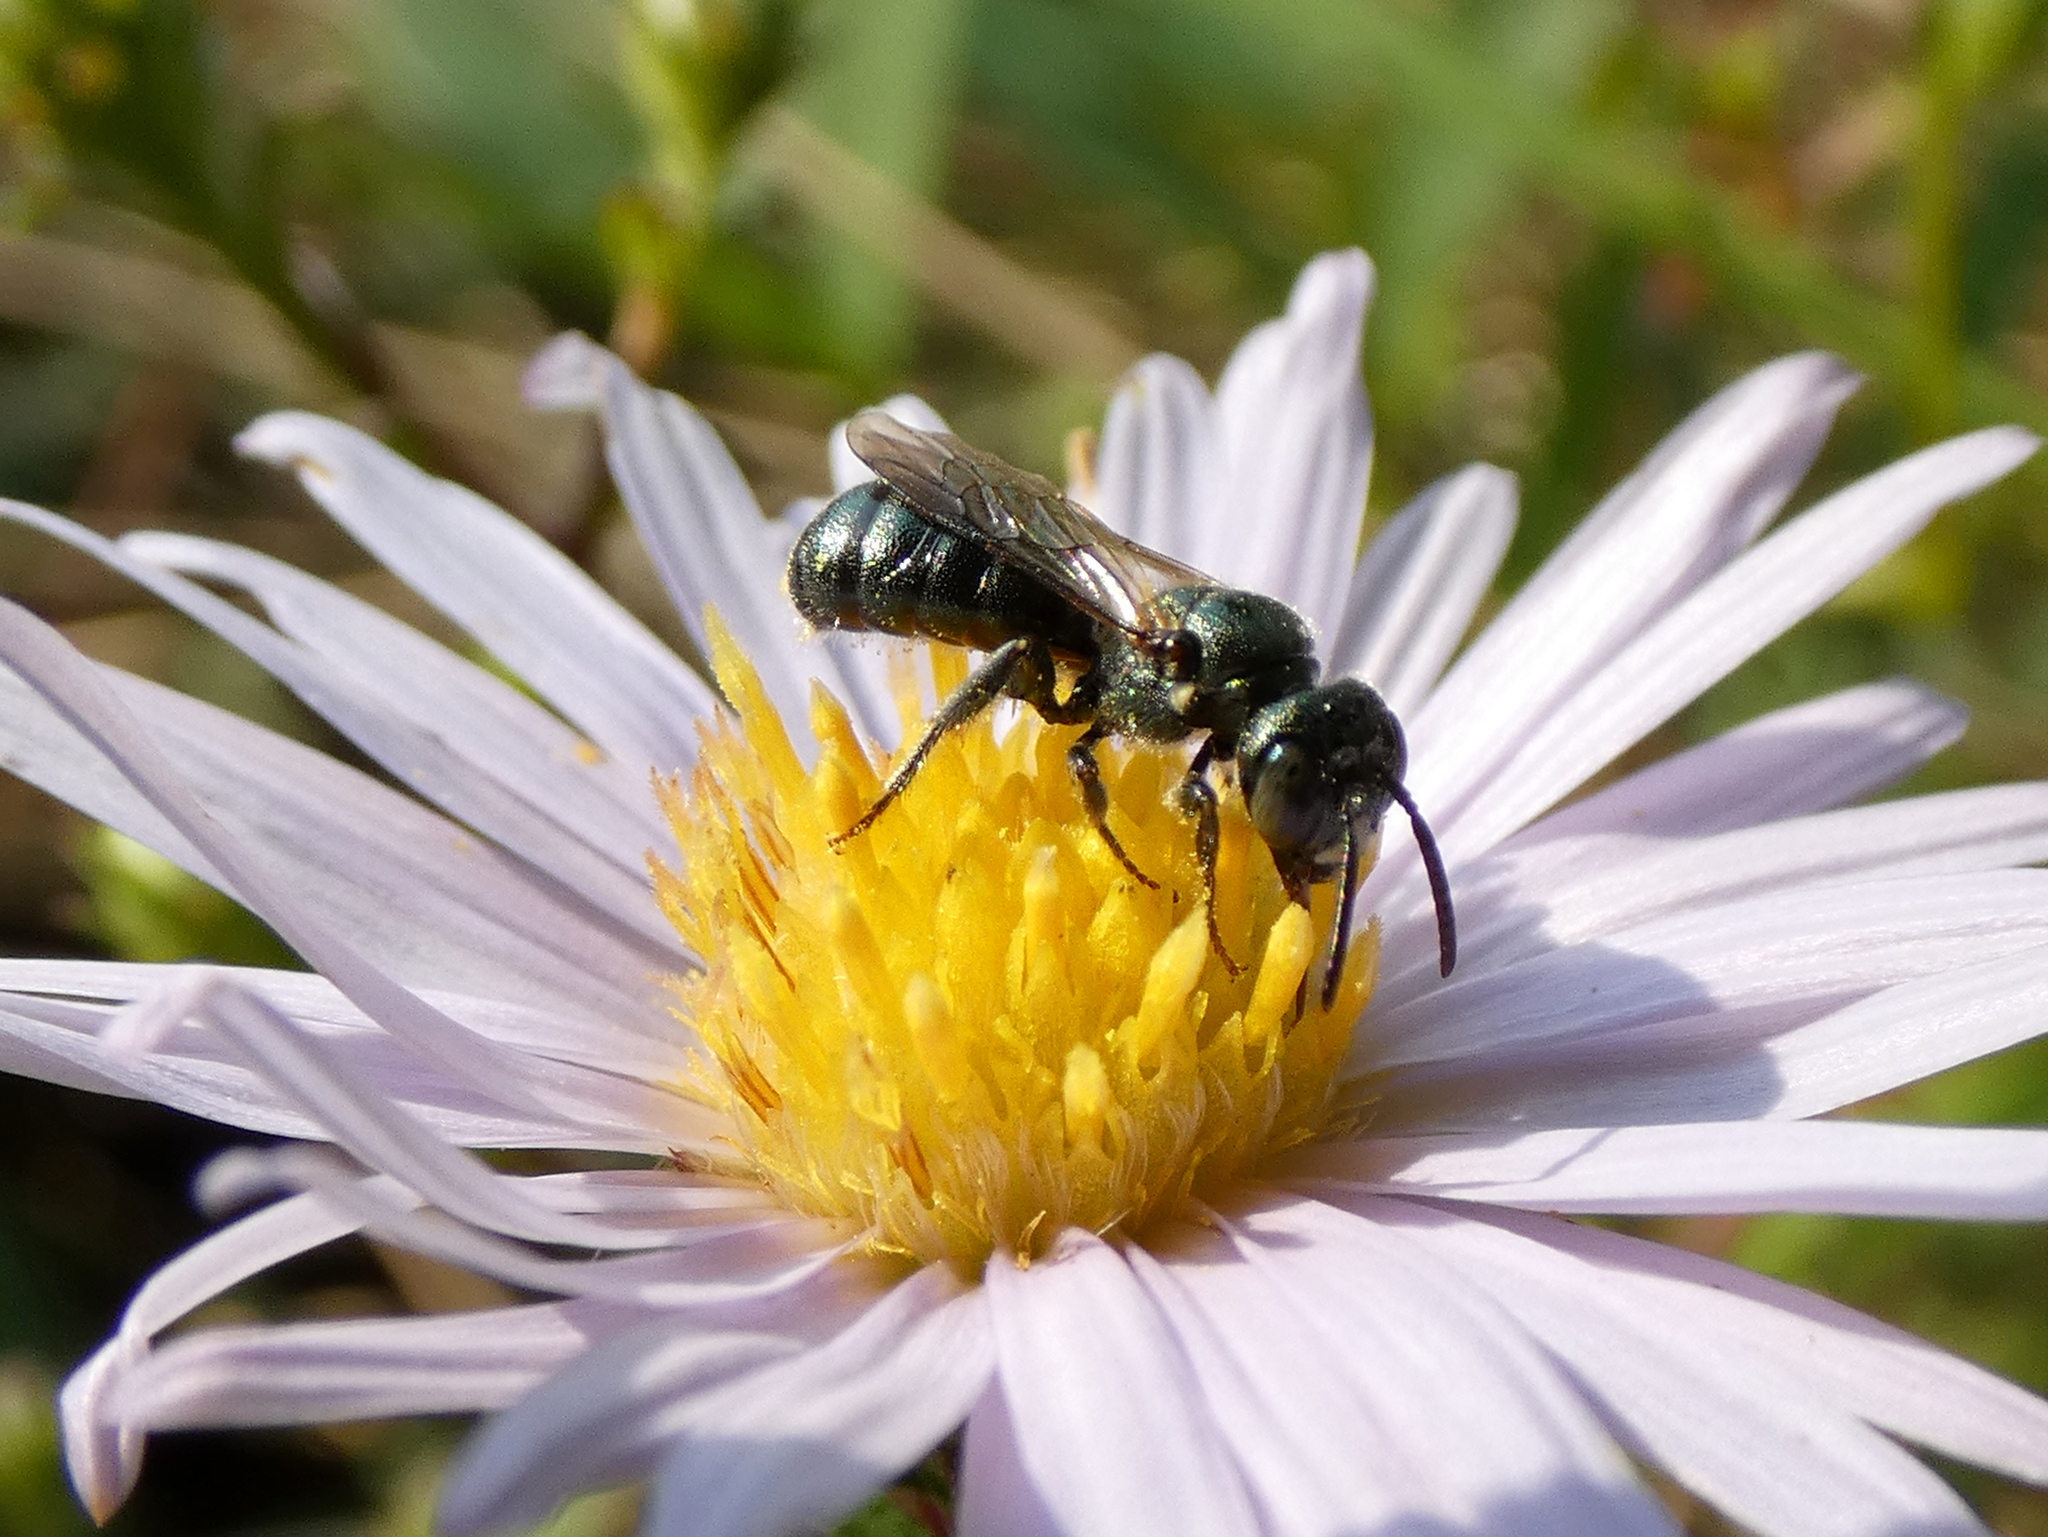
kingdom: Animalia
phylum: Arthropoda
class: Insecta
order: Hymenoptera
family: Apidae
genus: Zadontomerus
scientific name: Zadontomerus
